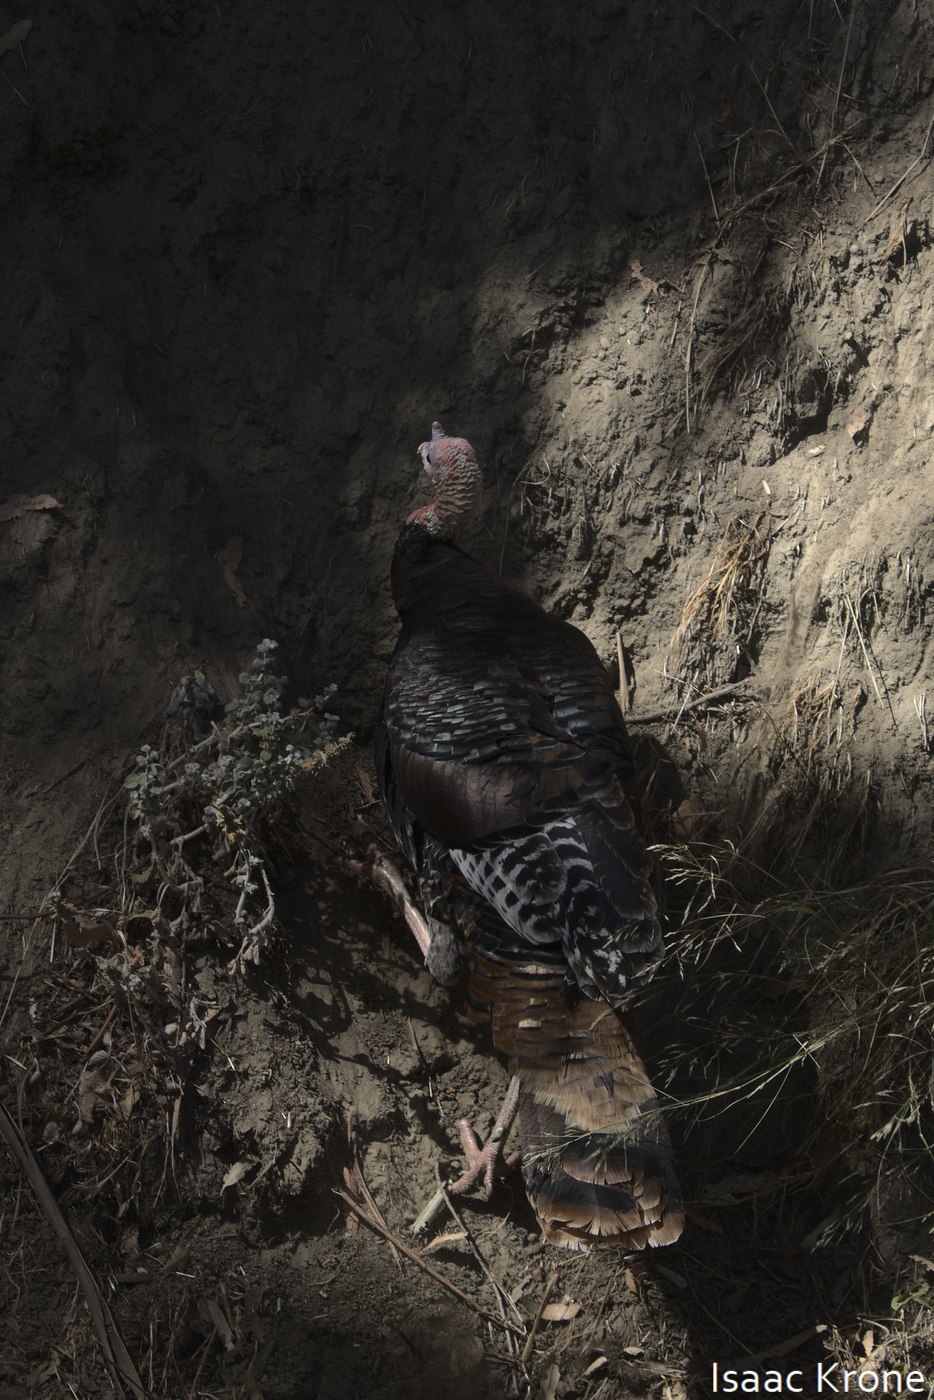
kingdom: Animalia
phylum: Chordata
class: Aves
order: Galliformes
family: Phasianidae
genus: Meleagris
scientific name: Meleagris gallopavo
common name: Wild turkey
